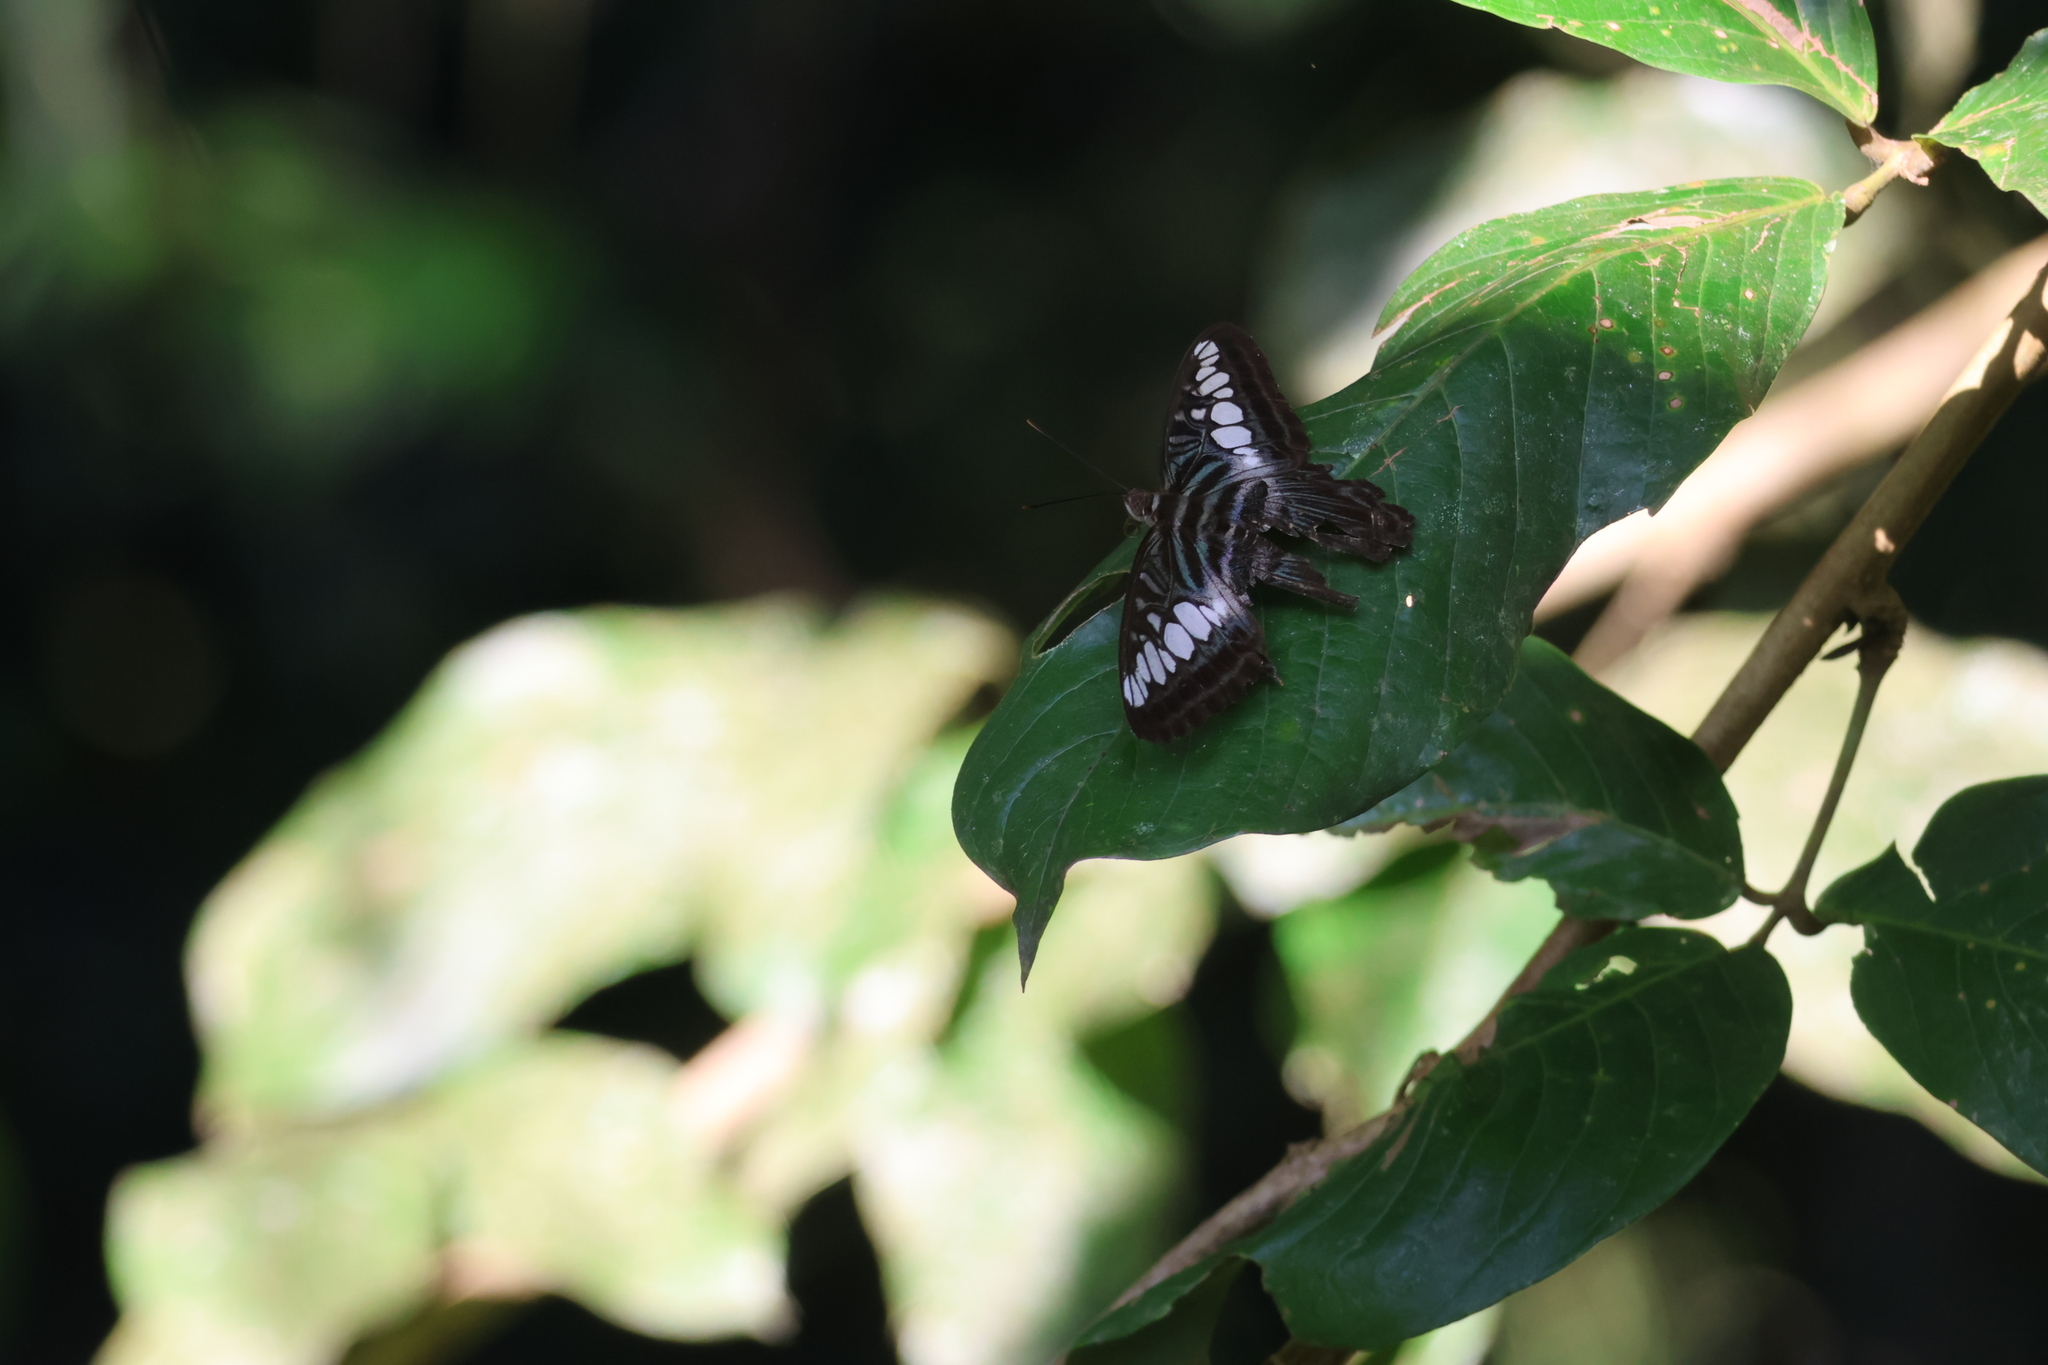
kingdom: Animalia
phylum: Arthropoda
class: Insecta
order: Lepidoptera
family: Nymphalidae
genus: Kallima
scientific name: Kallima sylvia
